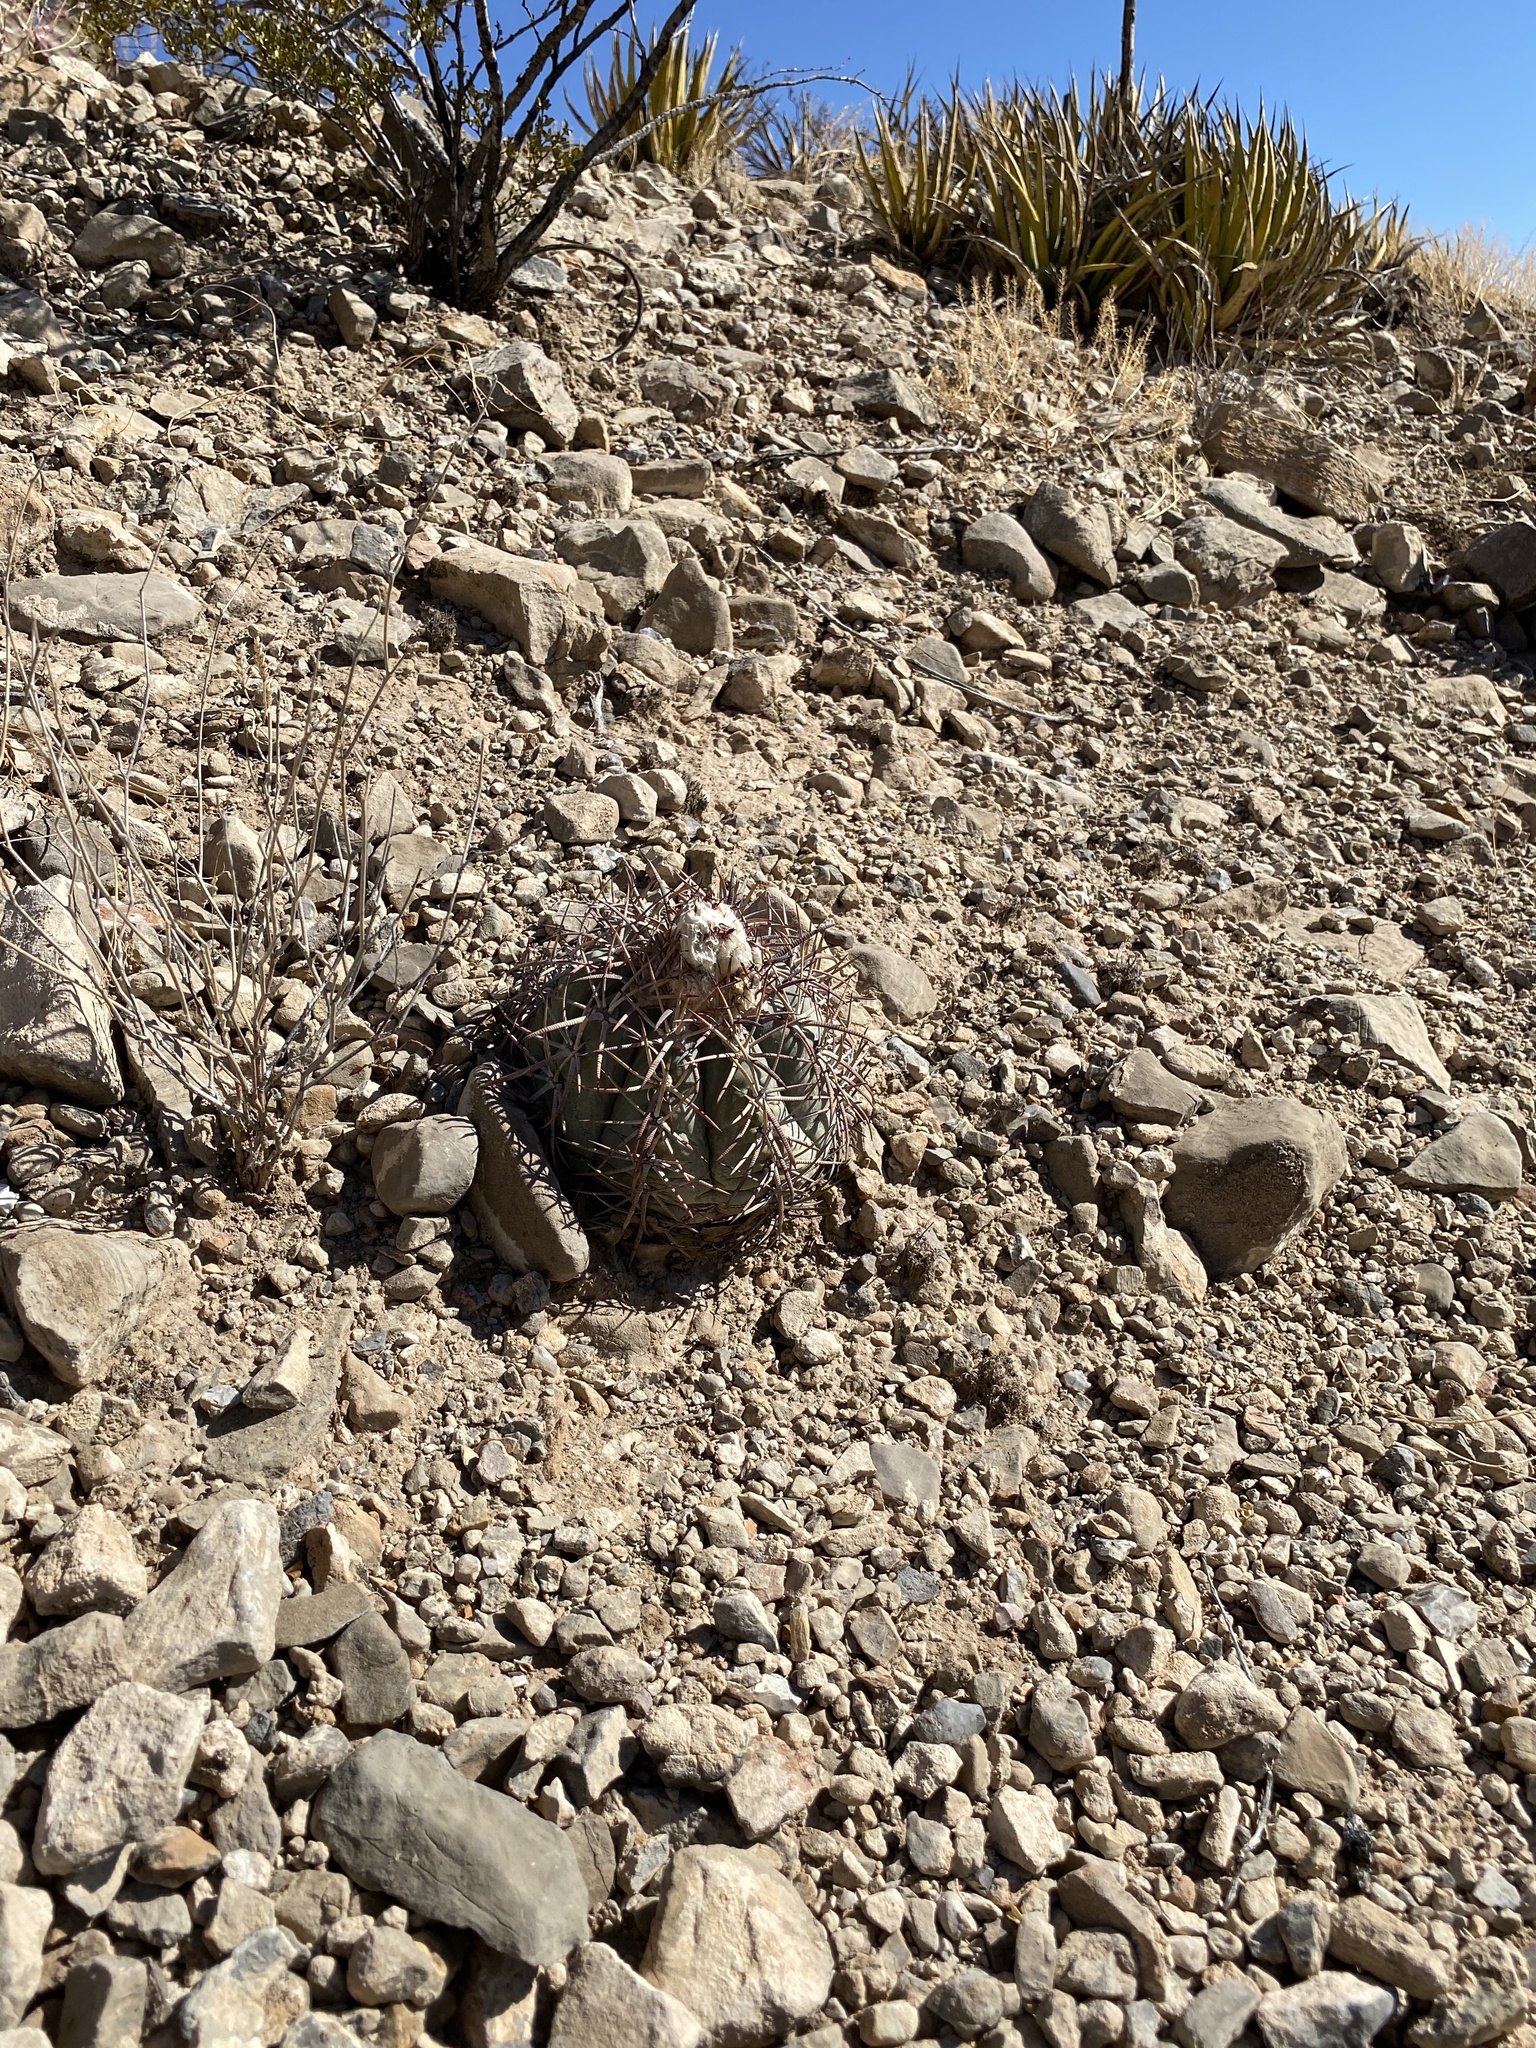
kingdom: Plantae
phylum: Tracheophyta
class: Magnoliopsida
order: Caryophyllales
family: Cactaceae
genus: Echinocactus
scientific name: Echinocactus horizonthalonius
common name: Devilshead
